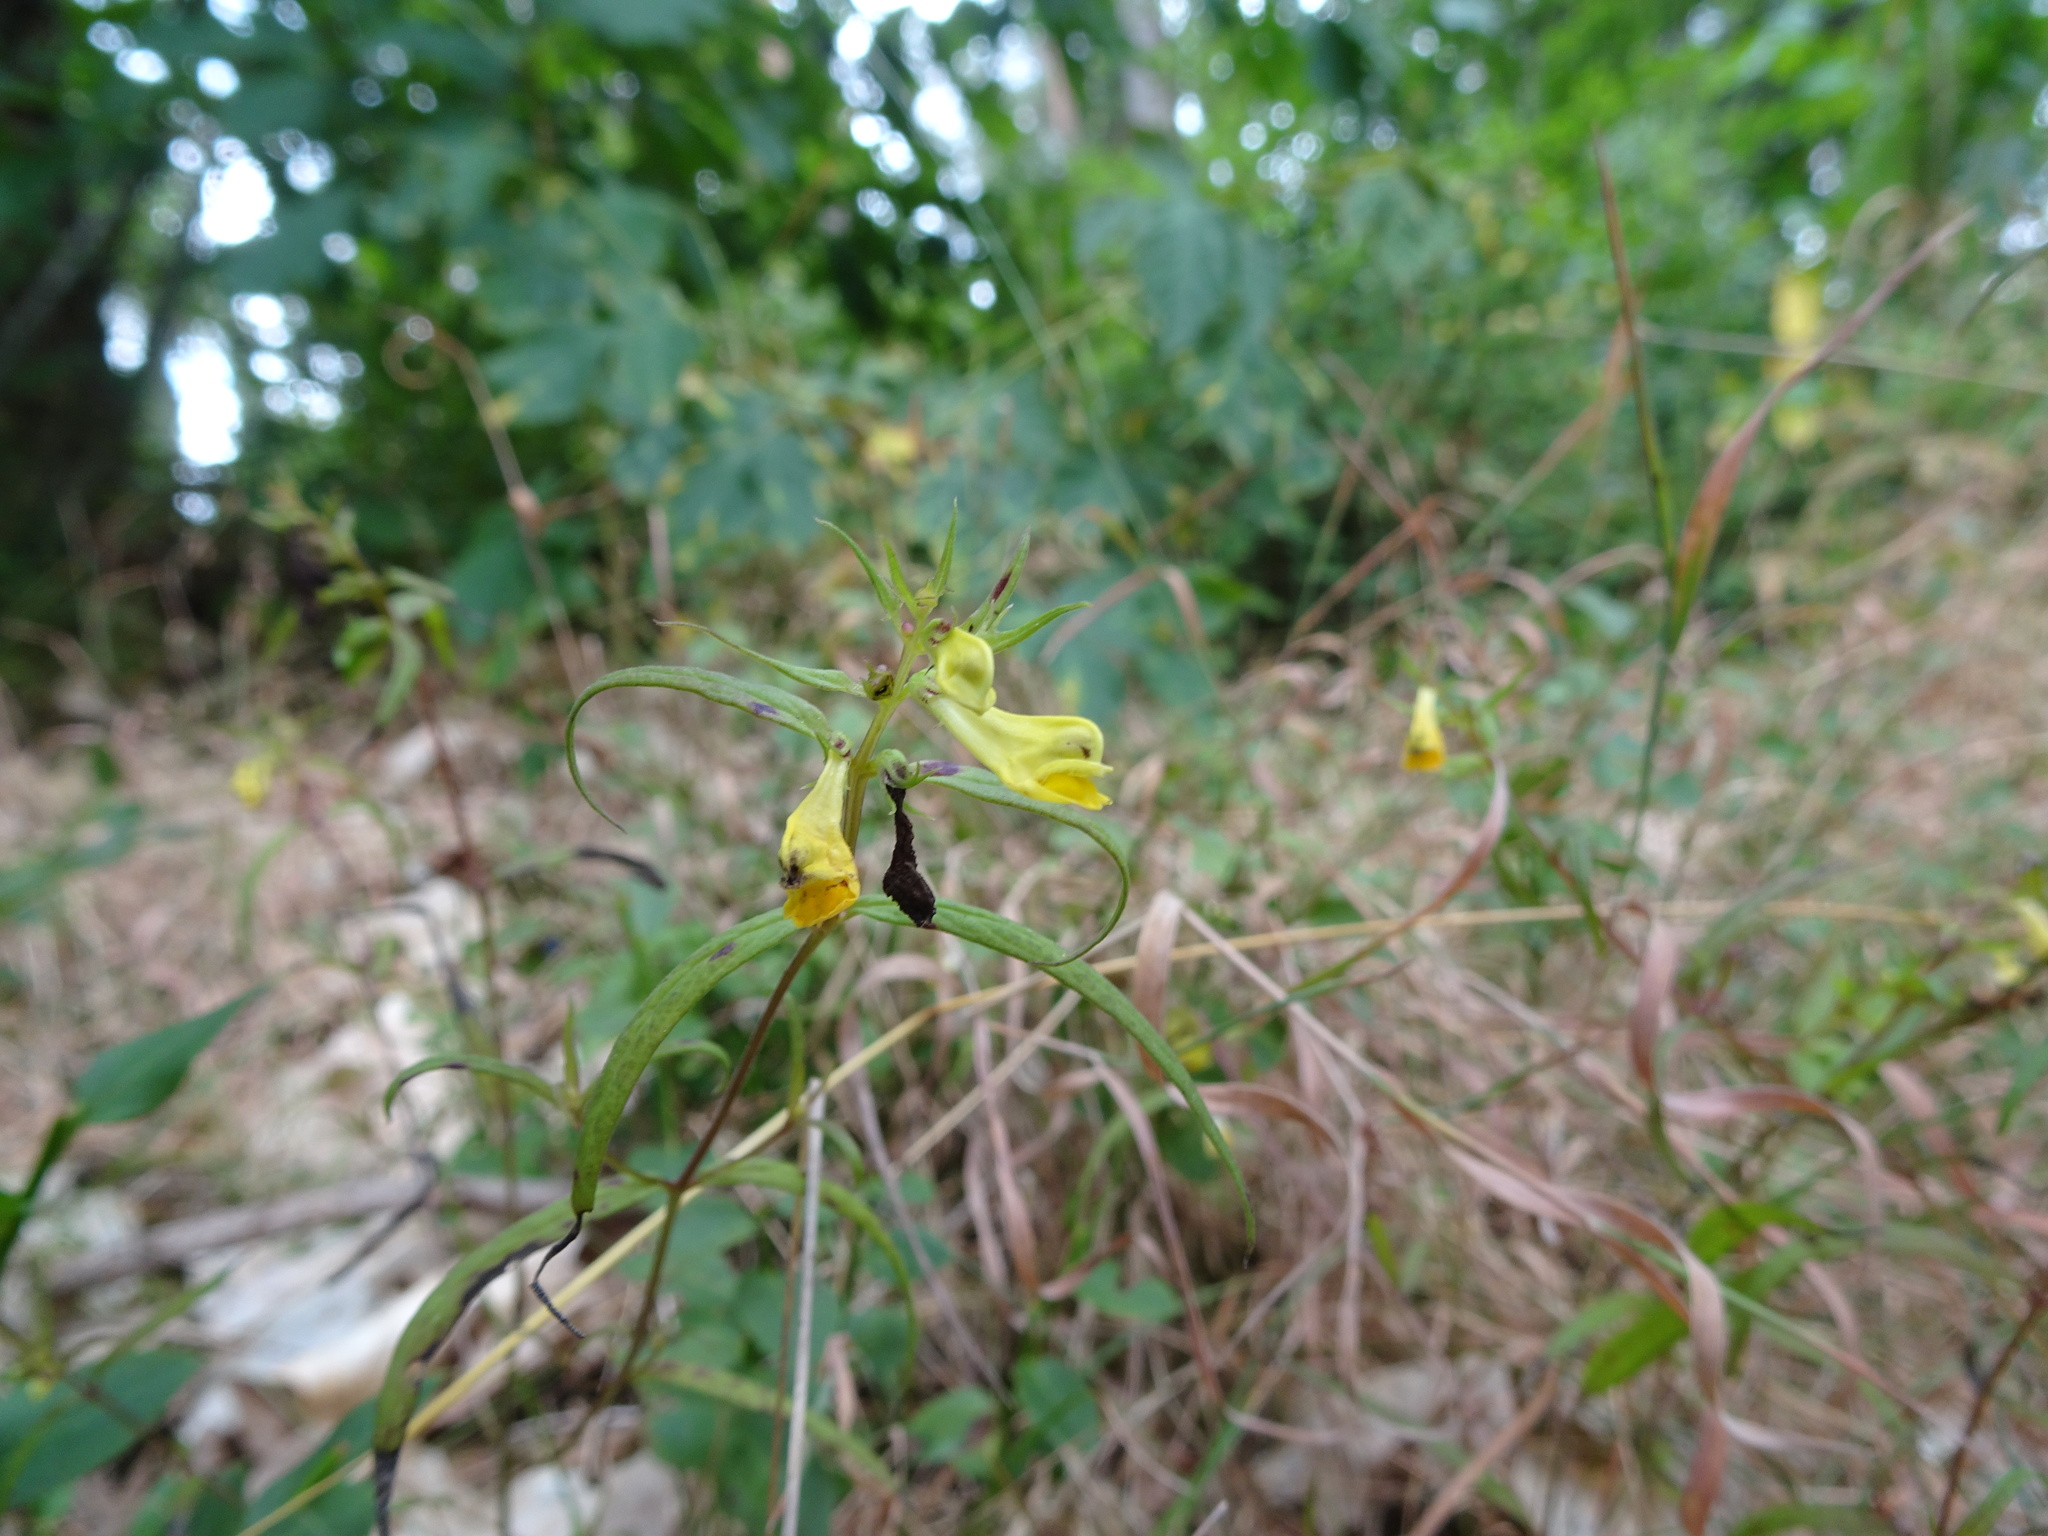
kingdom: Plantae
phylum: Tracheophyta
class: Magnoliopsida
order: Lamiales
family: Orobanchaceae
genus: Melampyrum
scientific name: Melampyrum pratense
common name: Common cow-wheat
